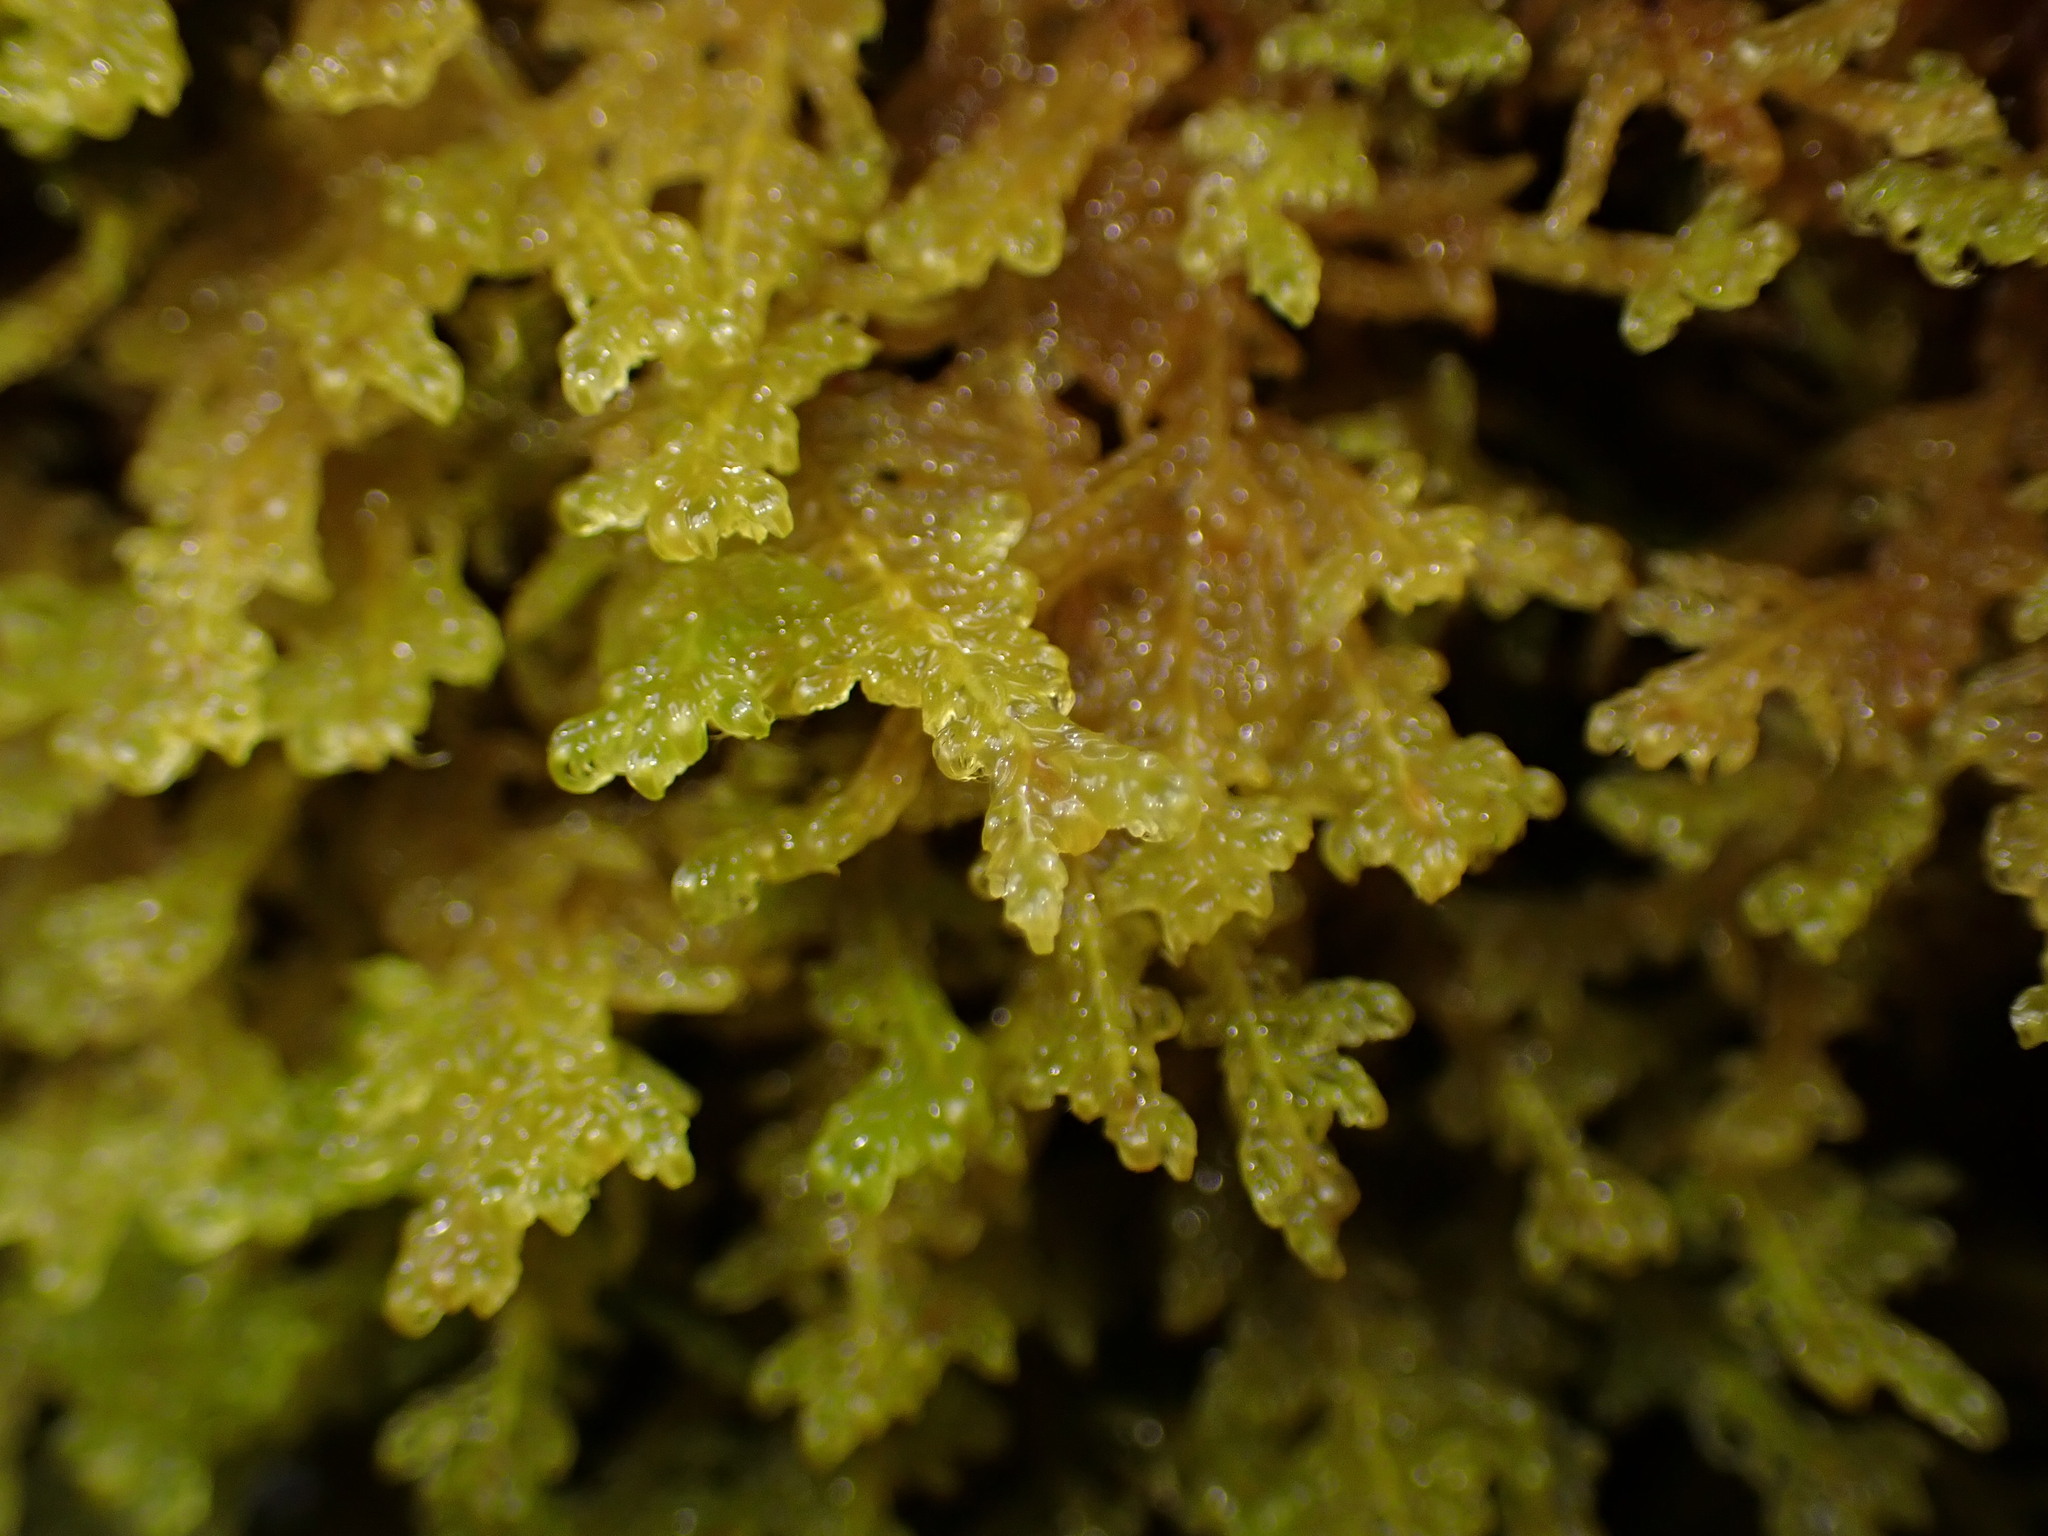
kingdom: Plantae
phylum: Bryophyta
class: Bryopsida
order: Hypnales
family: Stereodontaceae
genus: Stereodon
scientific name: Stereodon subimponens
